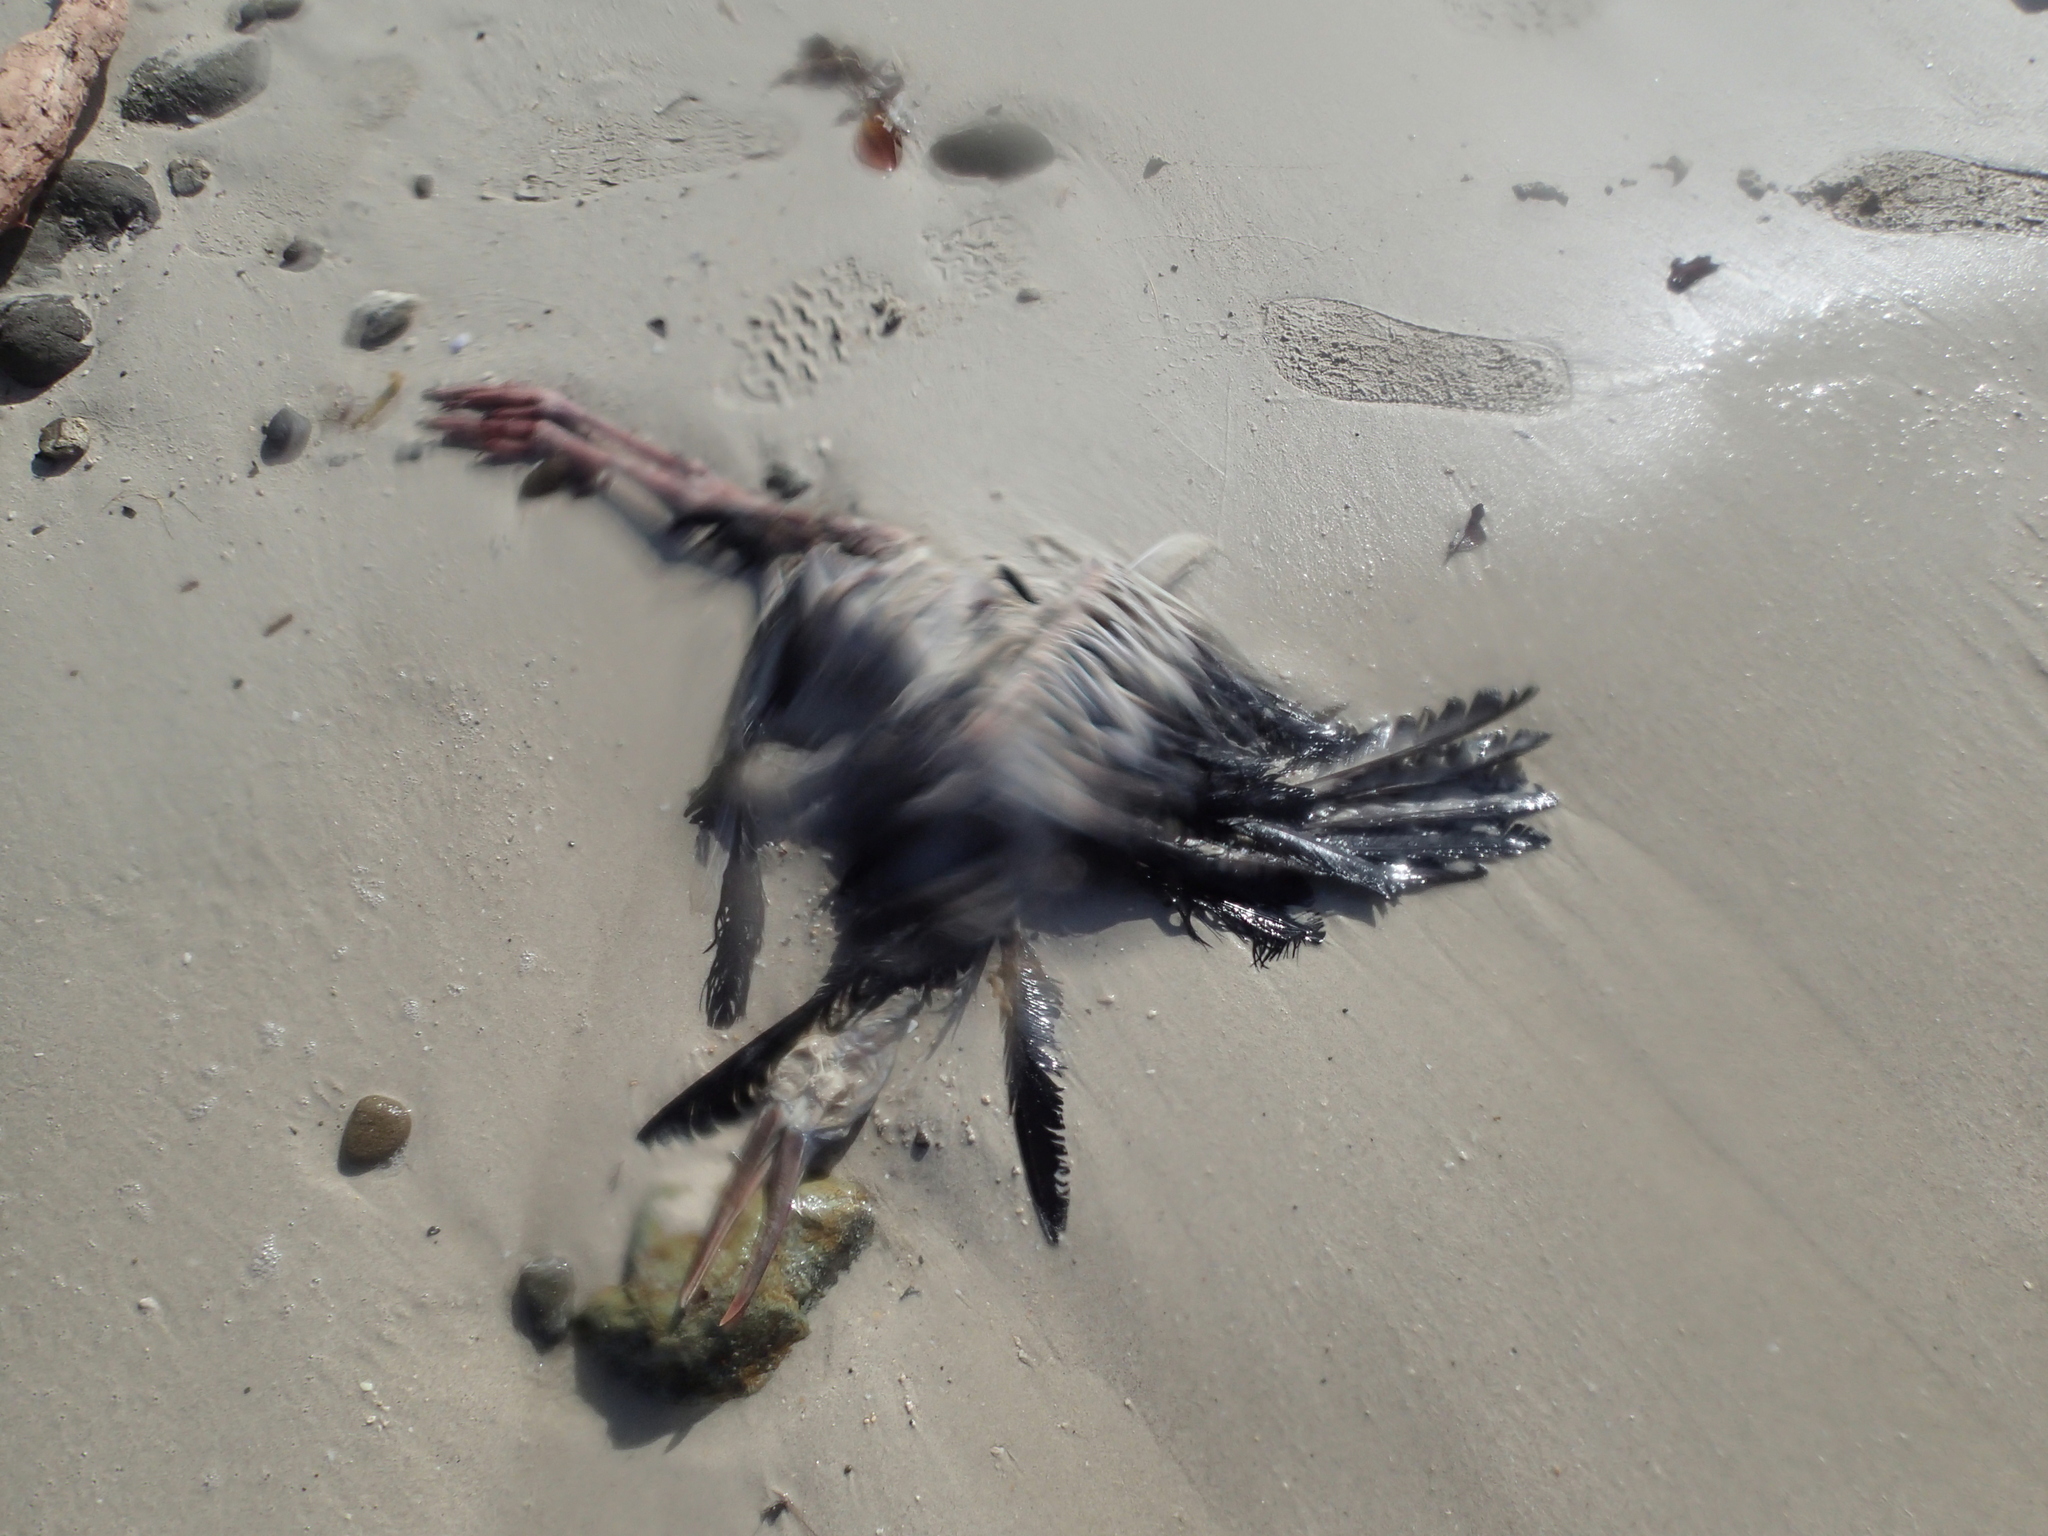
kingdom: Animalia
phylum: Chordata
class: Aves
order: Ciconiiformes
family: Ciconiidae
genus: Anastomus
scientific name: Anastomus oscitans
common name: Asian openbill
